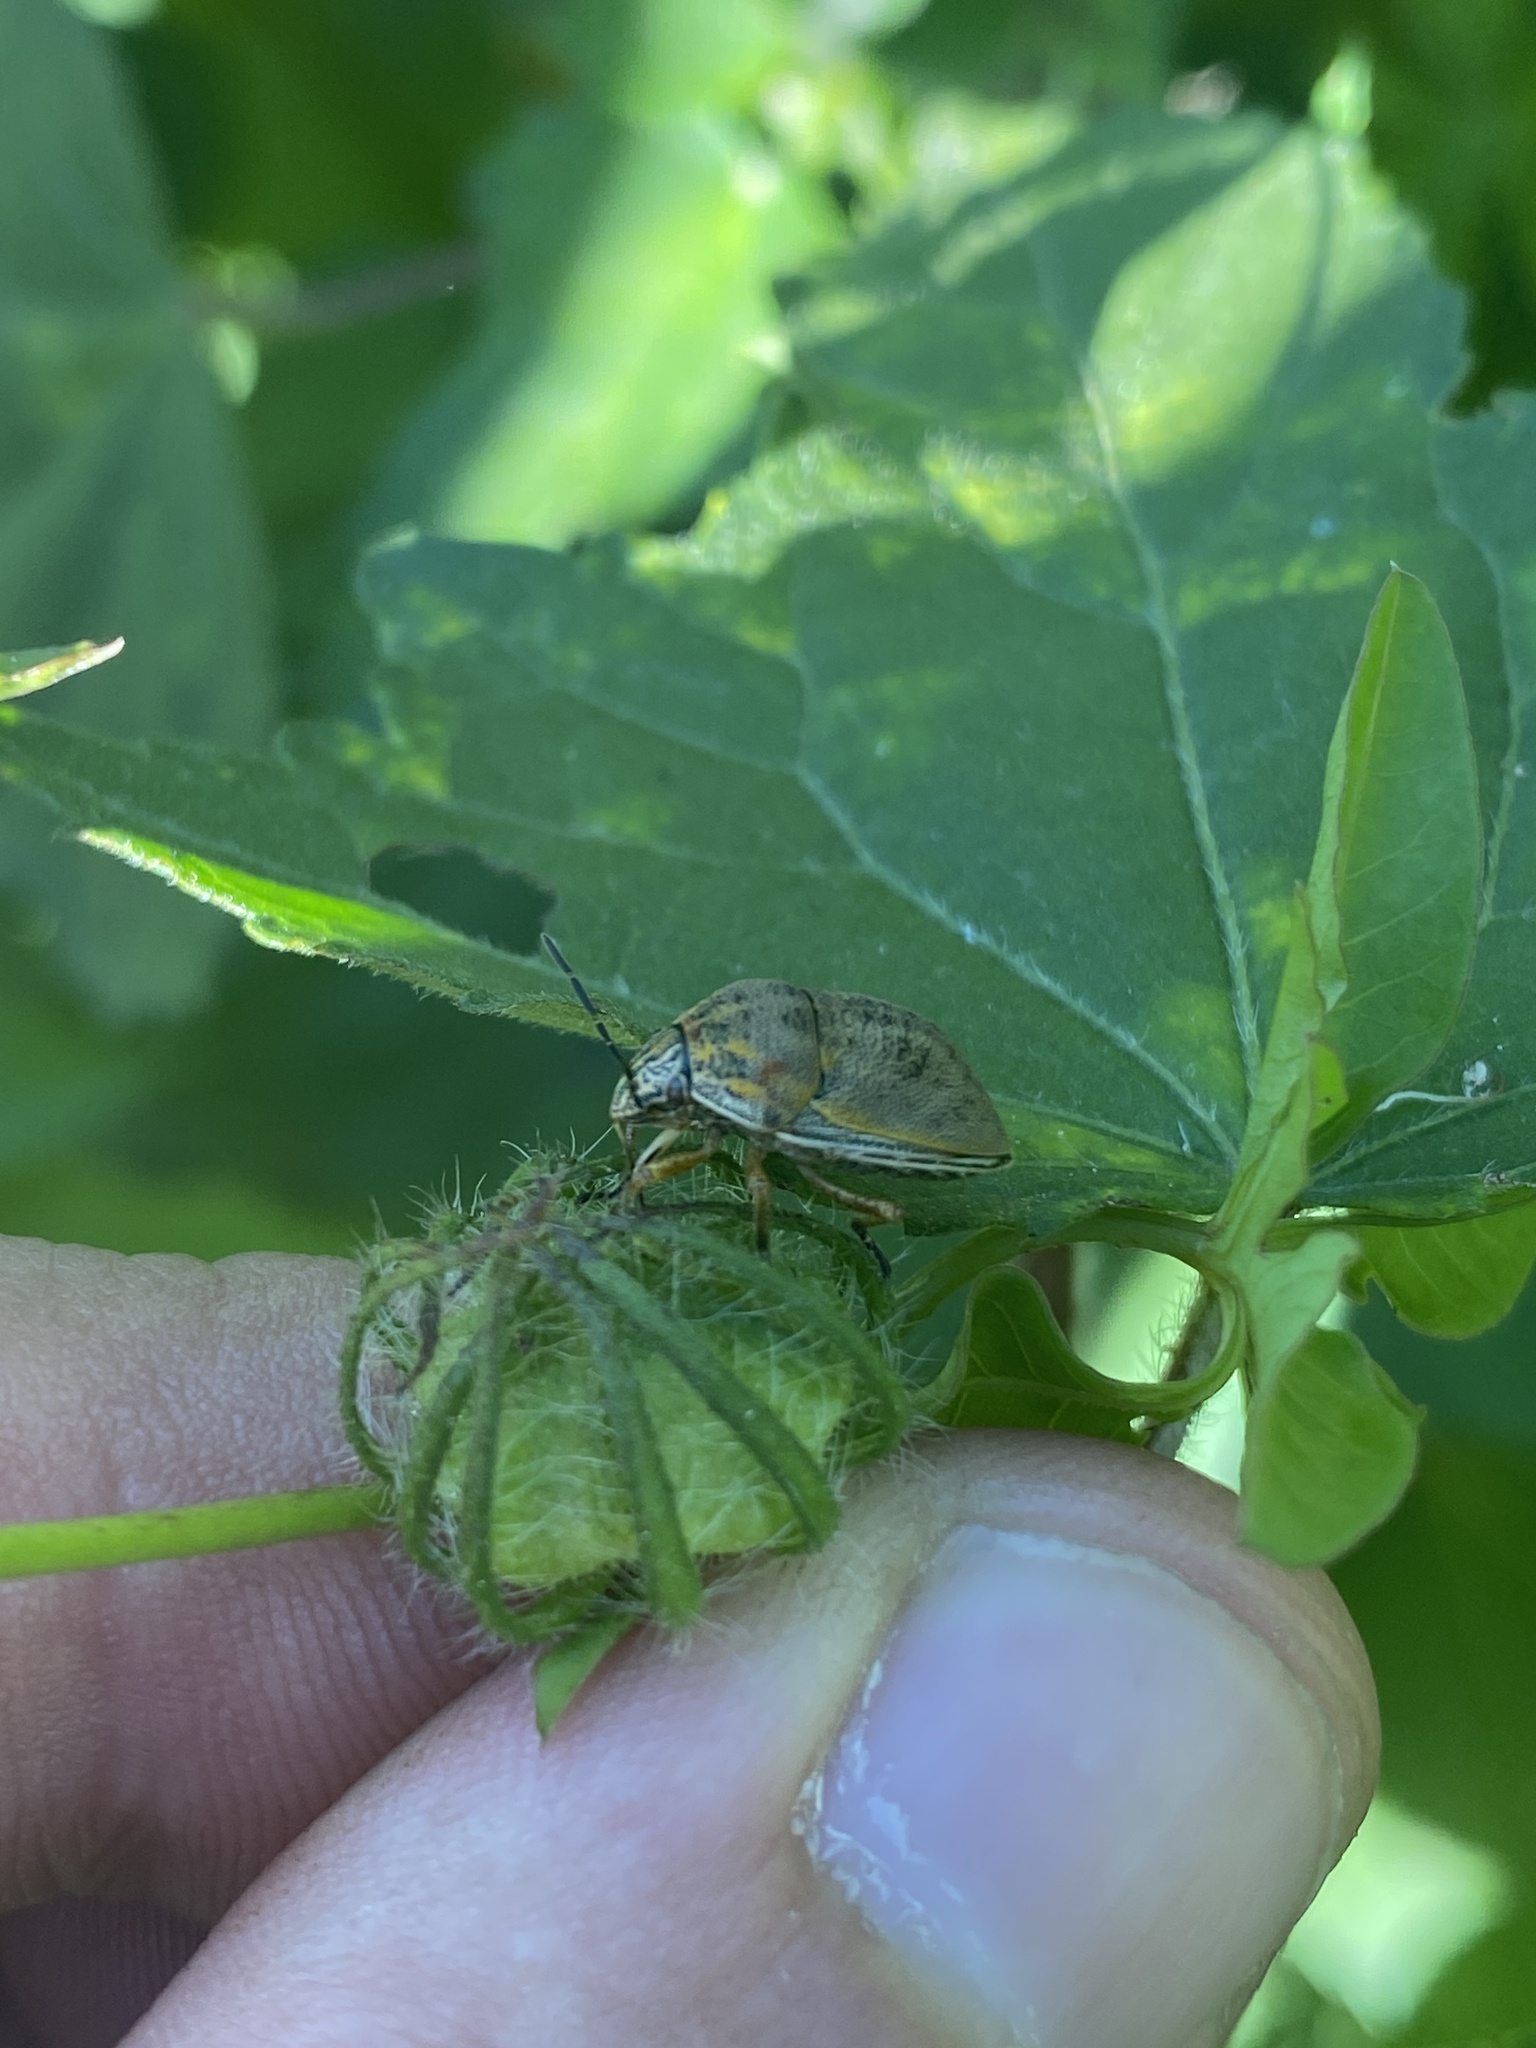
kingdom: Animalia
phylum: Arthropoda
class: Insecta
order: Hemiptera
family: Scutelleridae
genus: Orsilochides
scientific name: Orsilochides
